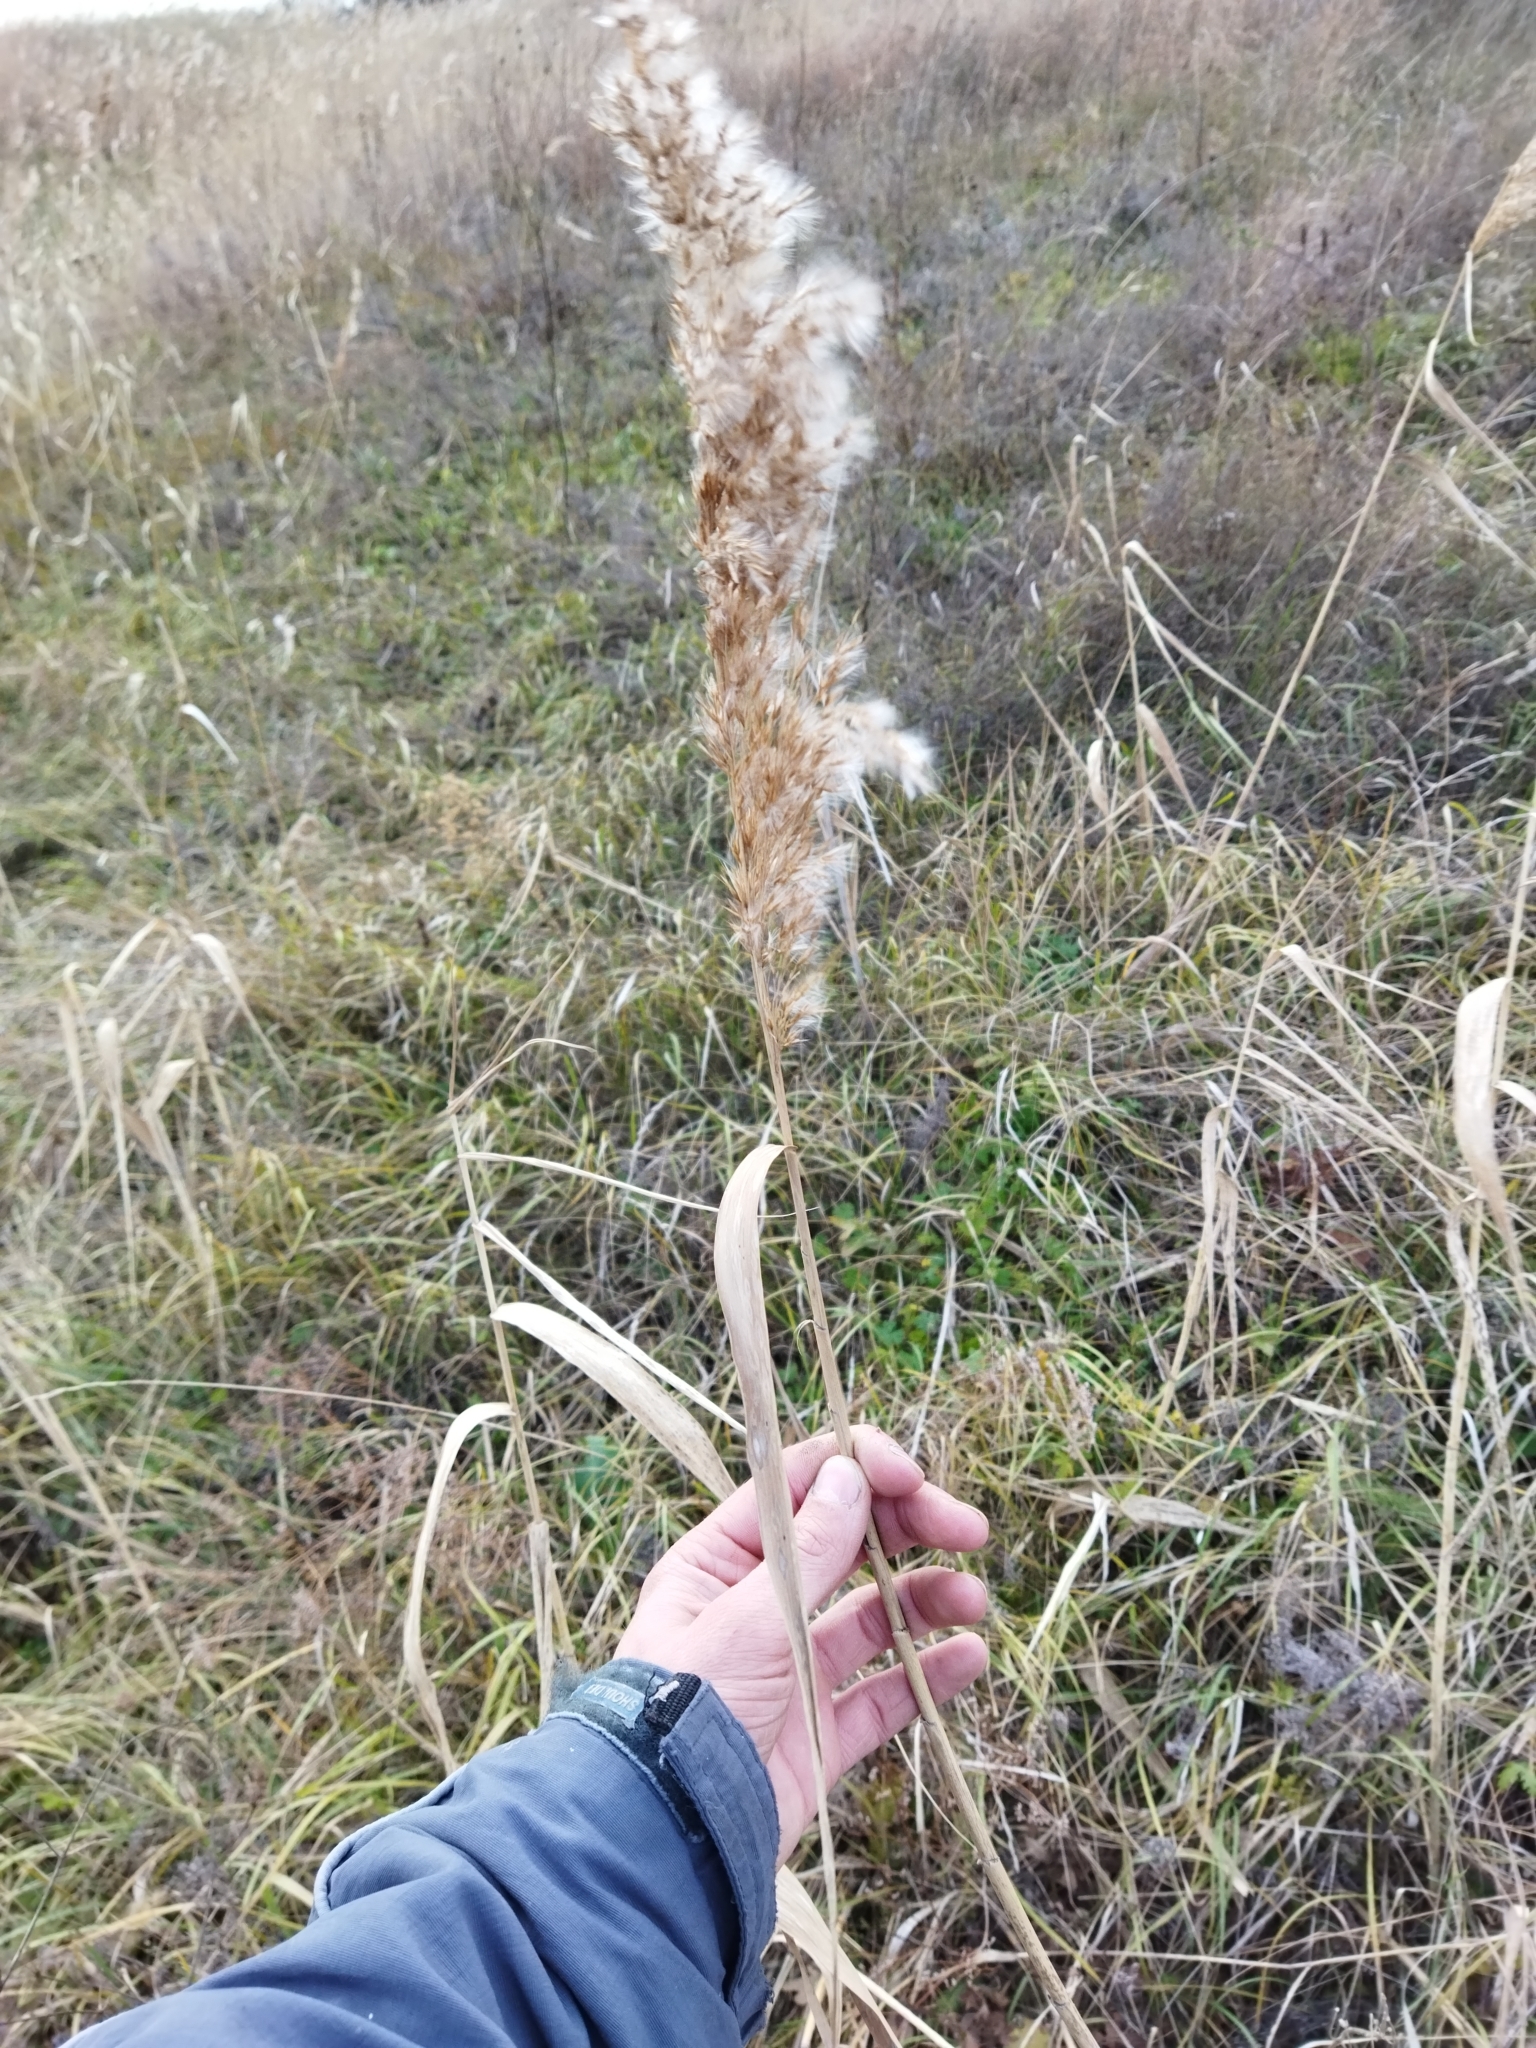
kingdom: Plantae
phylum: Tracheophyta
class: Liliopsida
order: Poales
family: Poaceae
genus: Phragmites
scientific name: Phragmites australis
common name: Common reed
